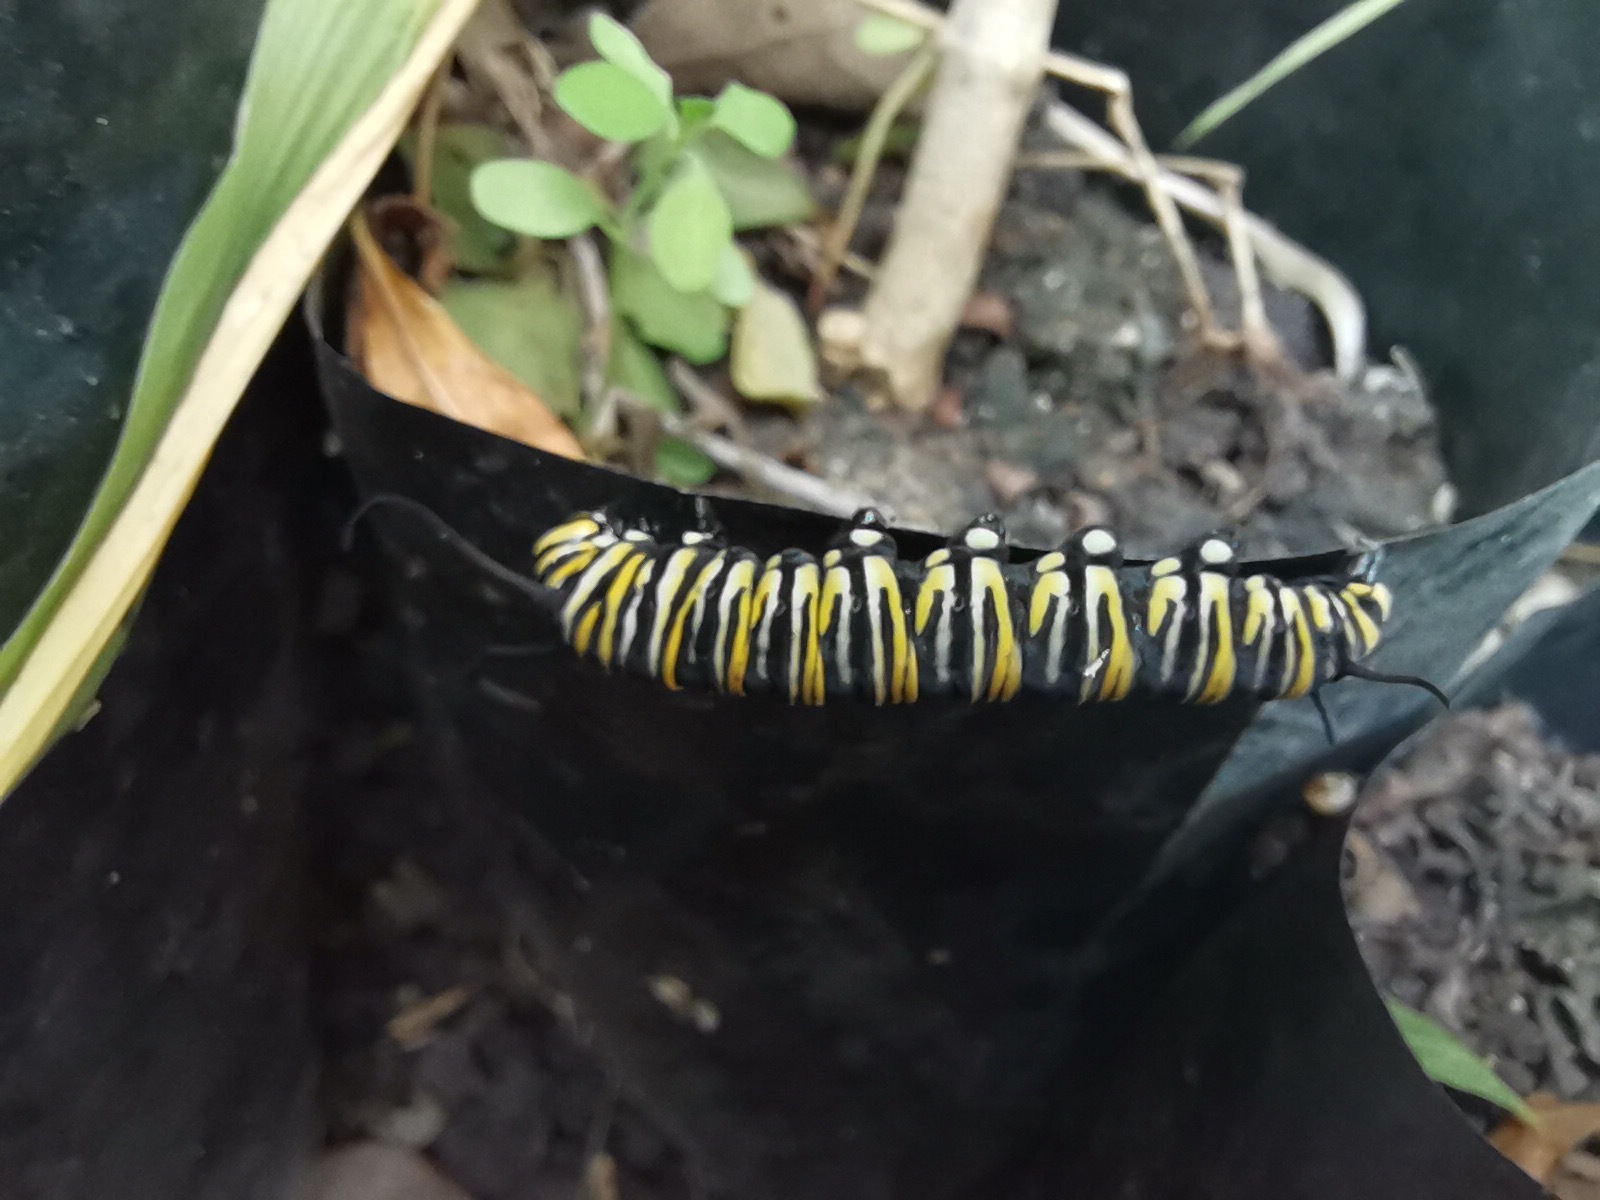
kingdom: Animalia
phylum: Arthropoda
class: Insecta
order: Lepidoptera
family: Nymphalidae
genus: Danaus
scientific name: Danaus plexippus
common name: Monarch
